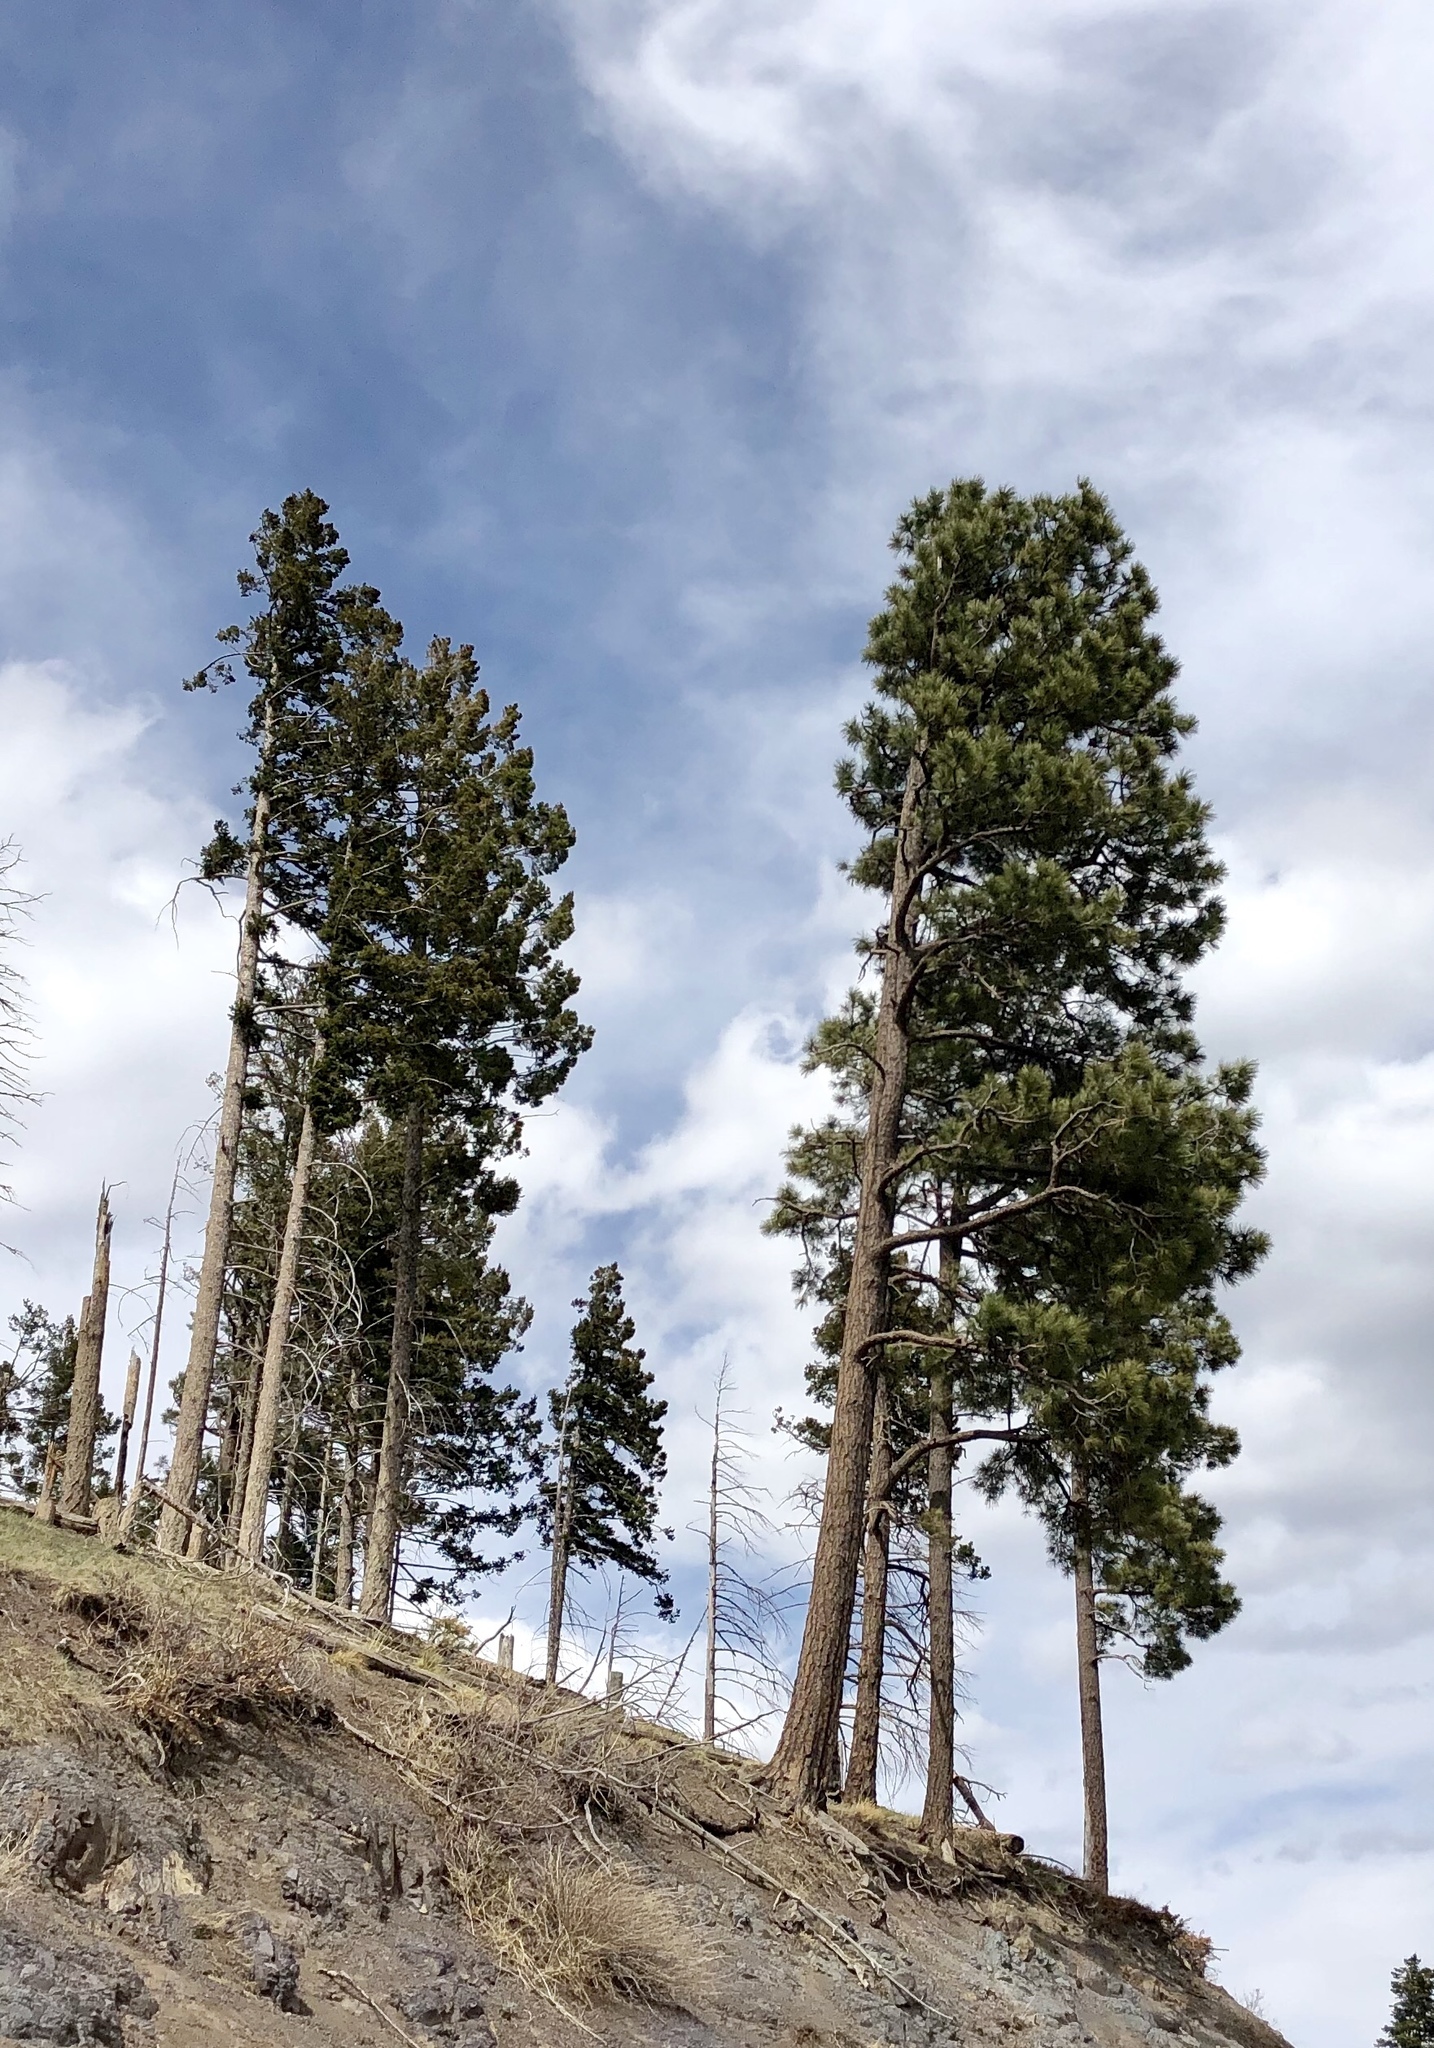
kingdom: Plantae
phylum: Tracheophyta
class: Pinopsida
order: Pinales
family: Pinaceae
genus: Pinus
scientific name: Pinus ponderosa
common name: Western yellow-pine
